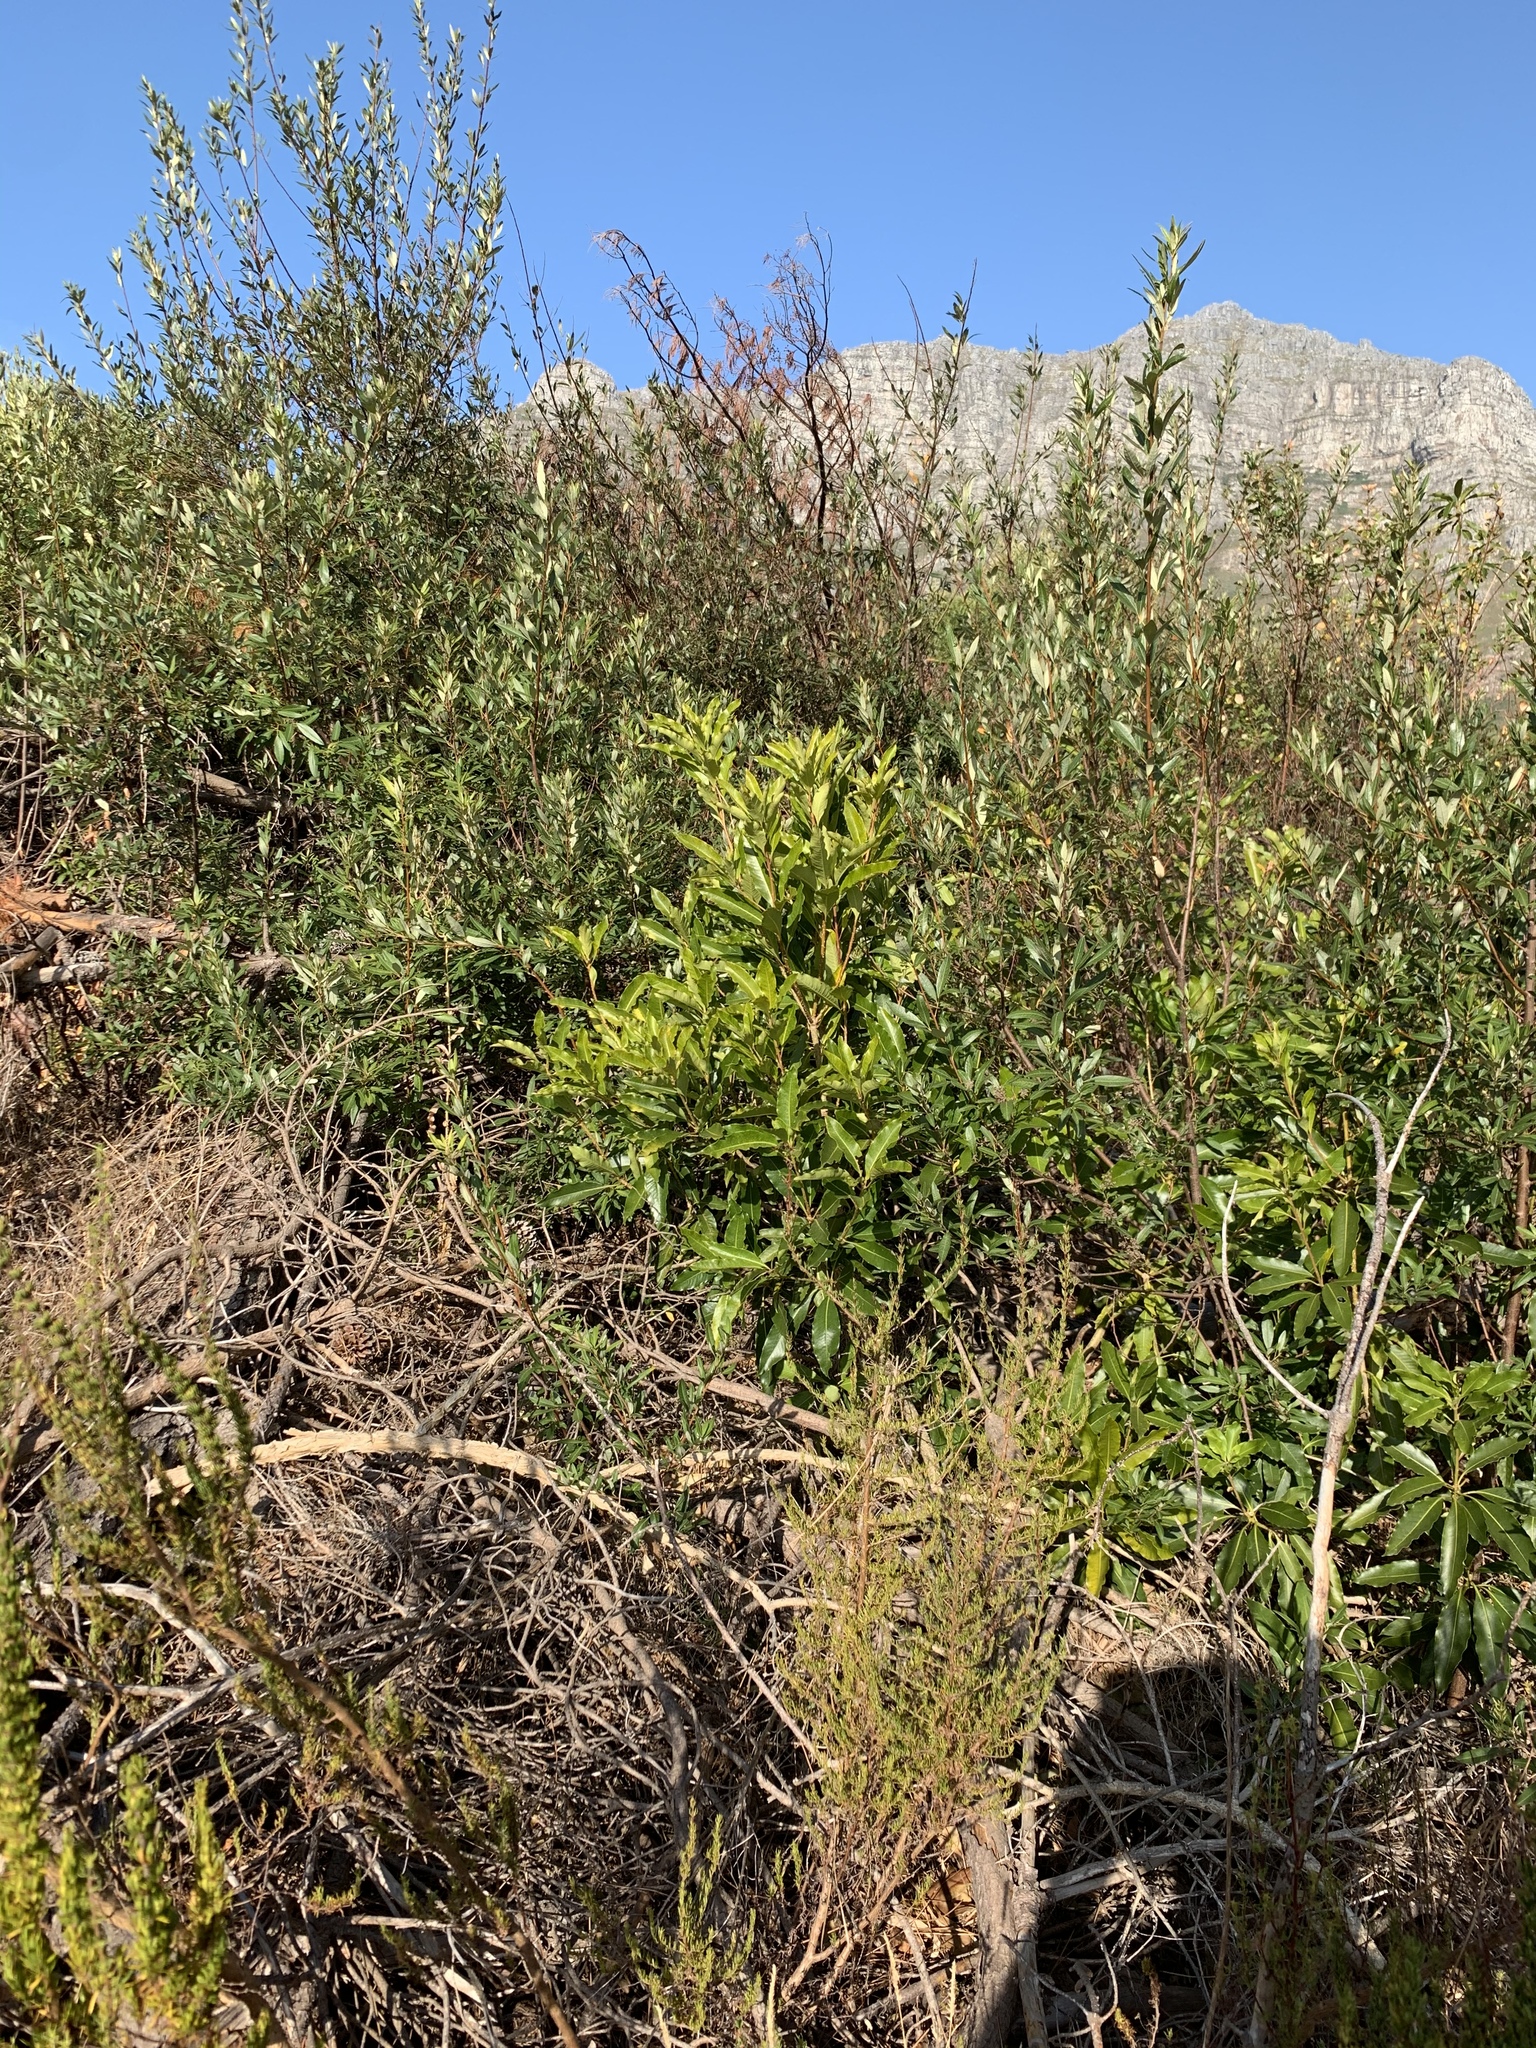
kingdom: Plantae
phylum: Tracheophyta
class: Magnoliopsida
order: Apiales
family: Pittosporaceae
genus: Pittosporum
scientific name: Pittosporum undulatum
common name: Australian cheesewood
